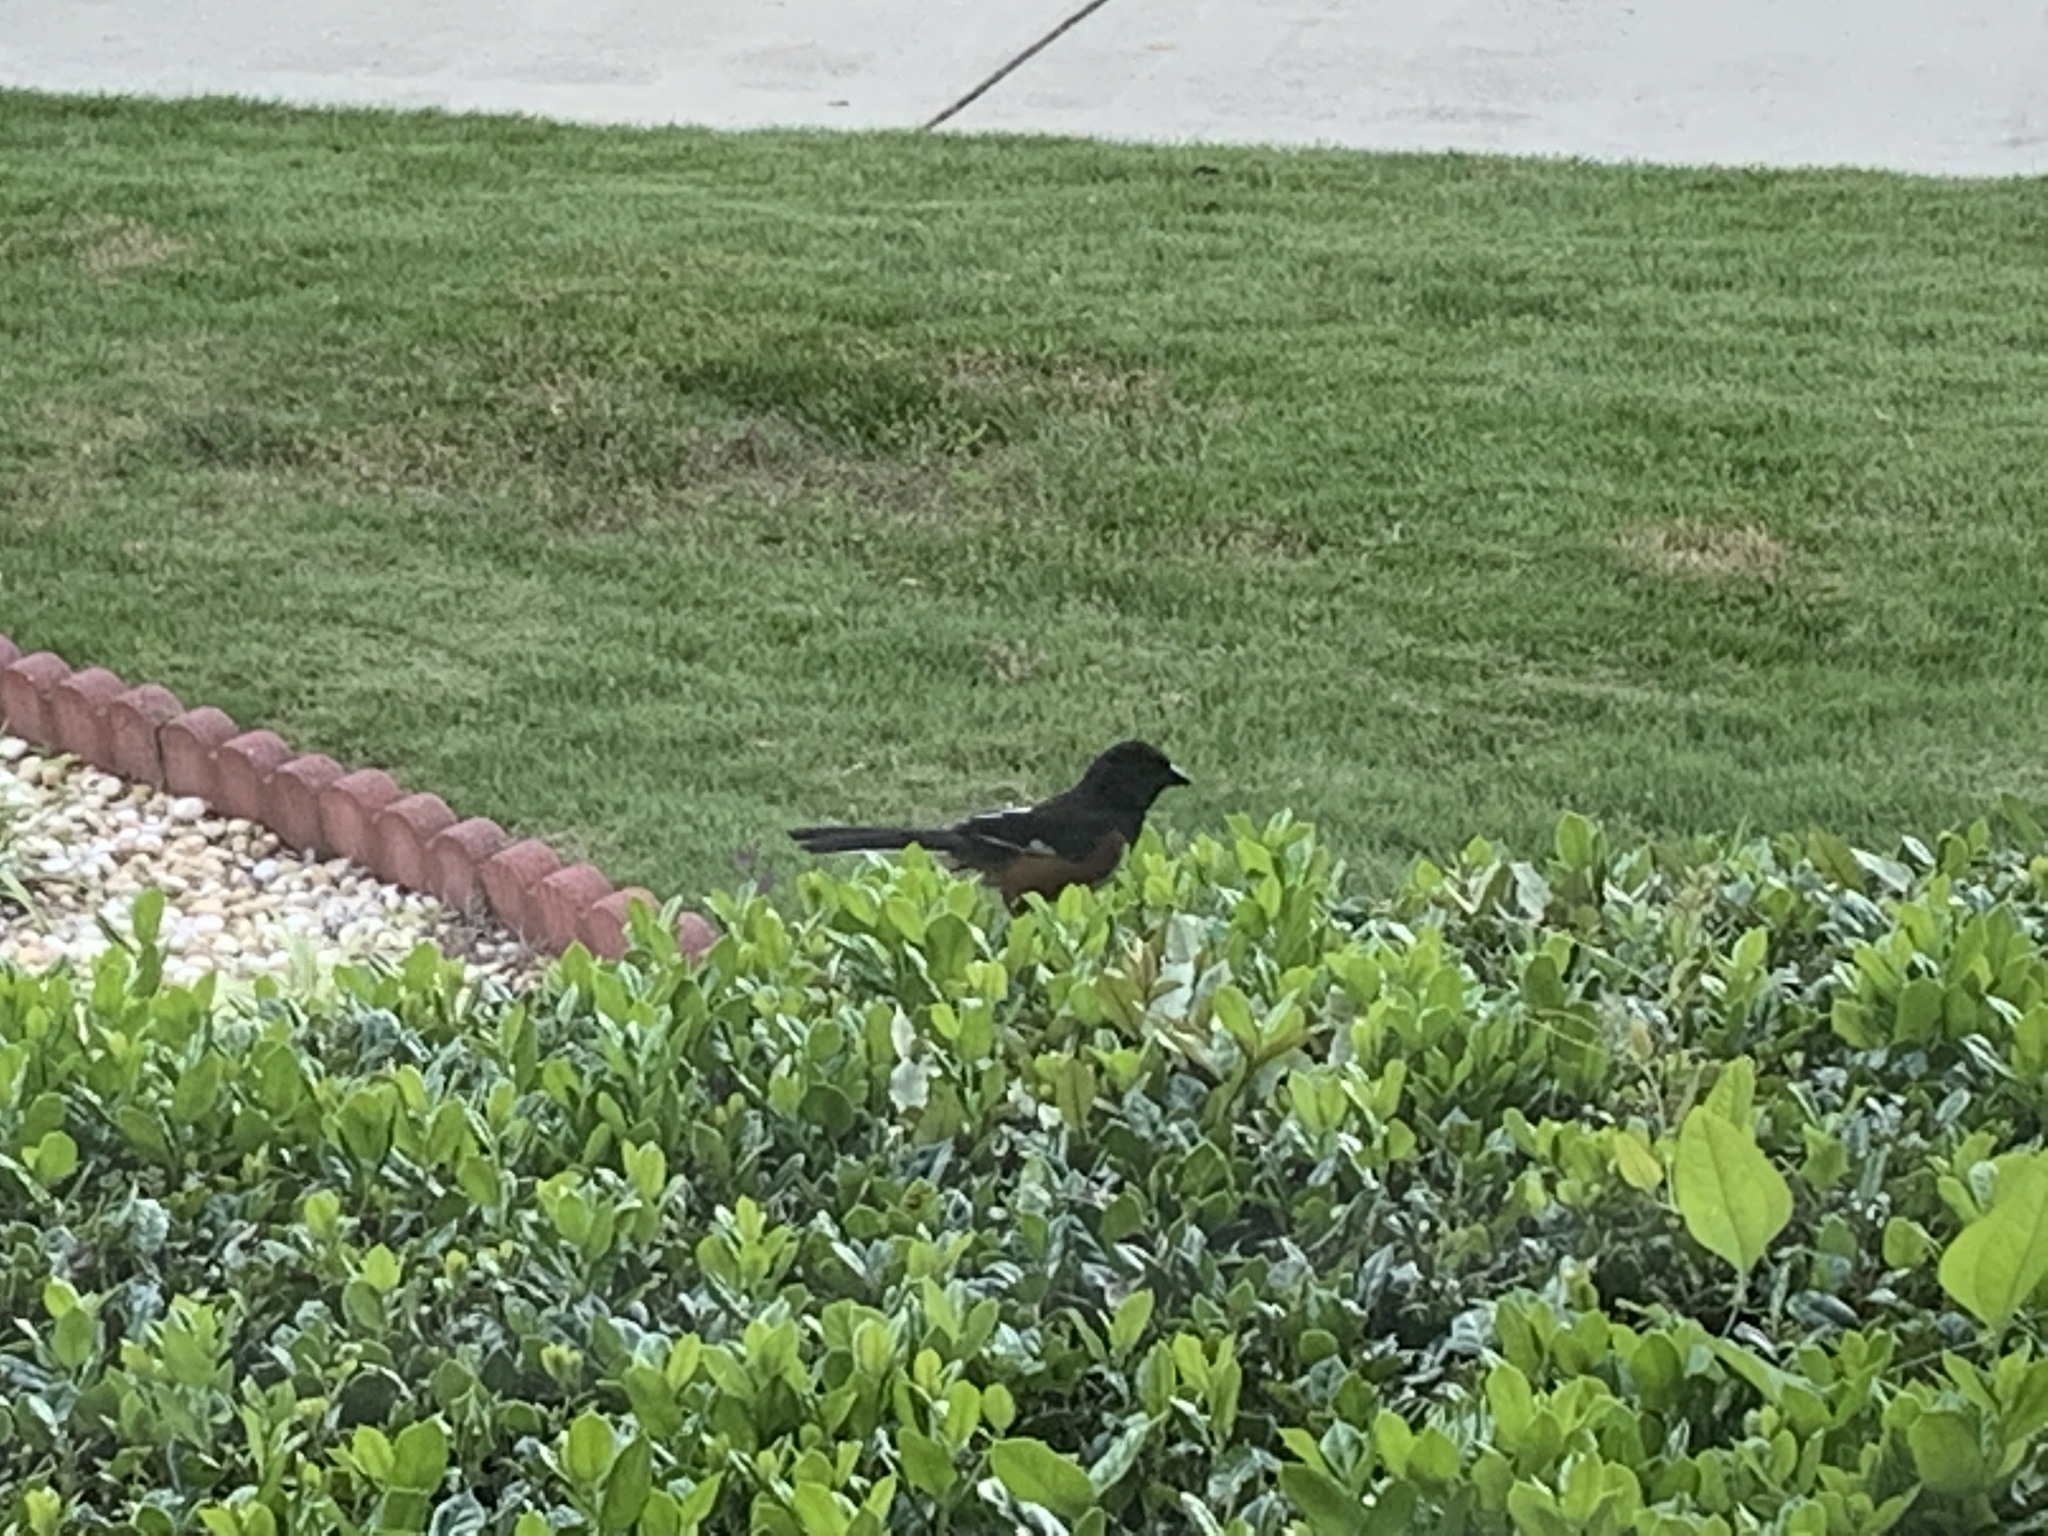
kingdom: Animalia
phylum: Chordata
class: Aves
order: Passeriformes
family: Passerellidae
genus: Pipilo
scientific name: Pipilo erythrophthalmus
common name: Eastern towhee
